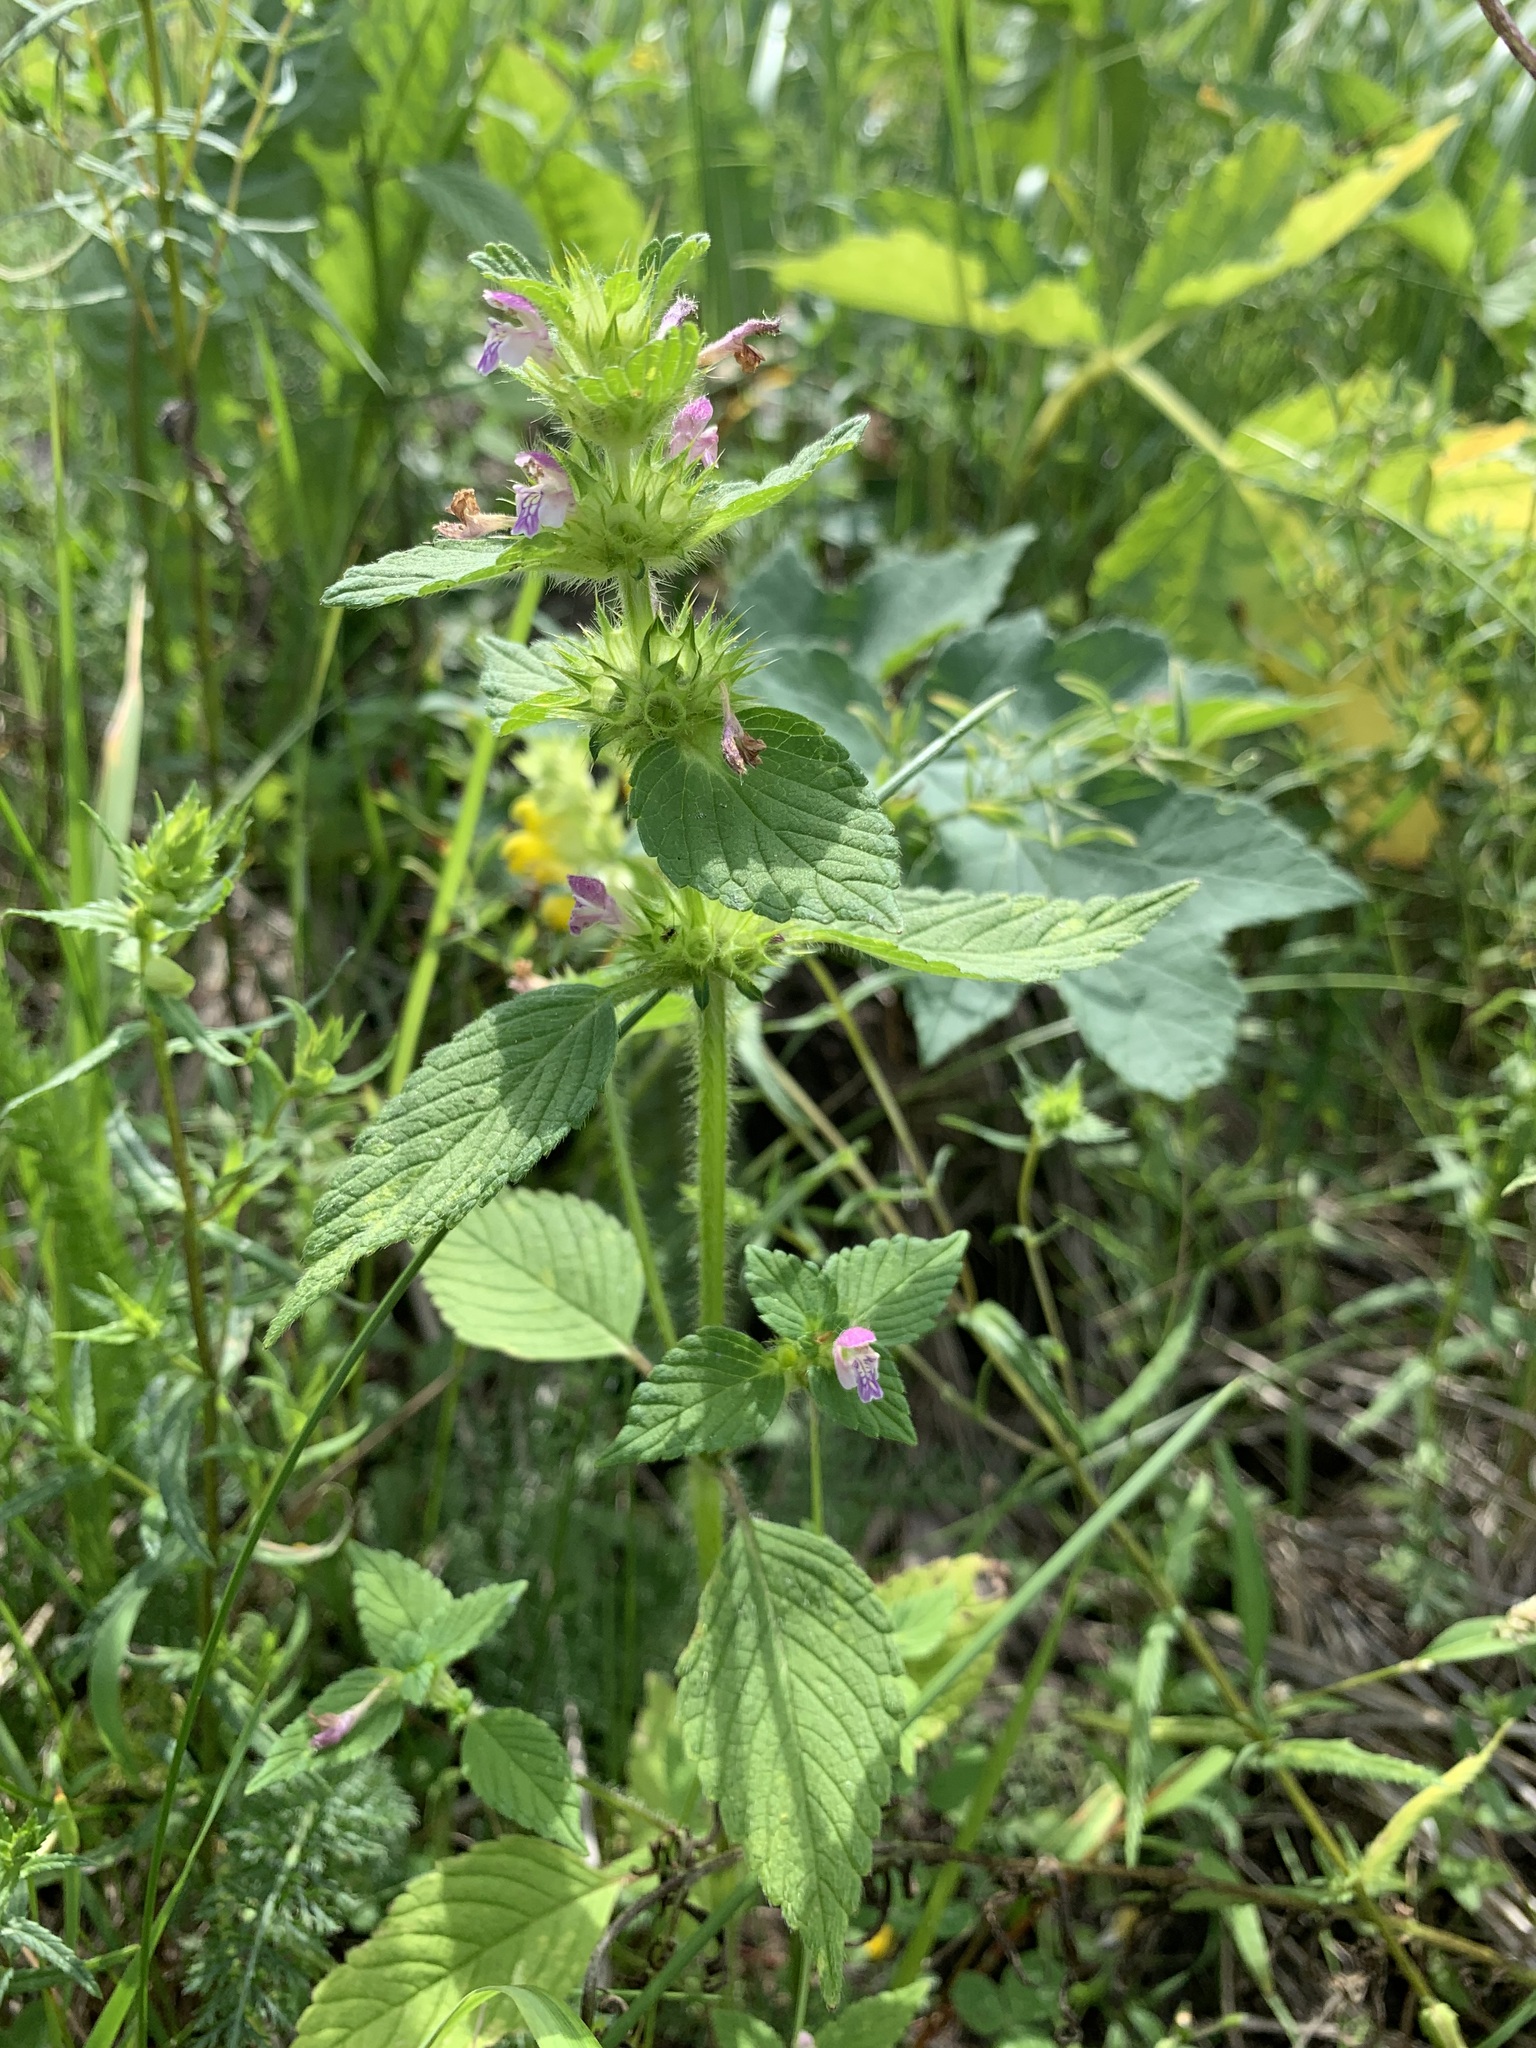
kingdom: Plantae
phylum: Tracheophyta
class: Magnoliopsida
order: Lamiales
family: Lamiaceae
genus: Galeopsis
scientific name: Galeopsis bifida
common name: Bifid hemp-nettle
